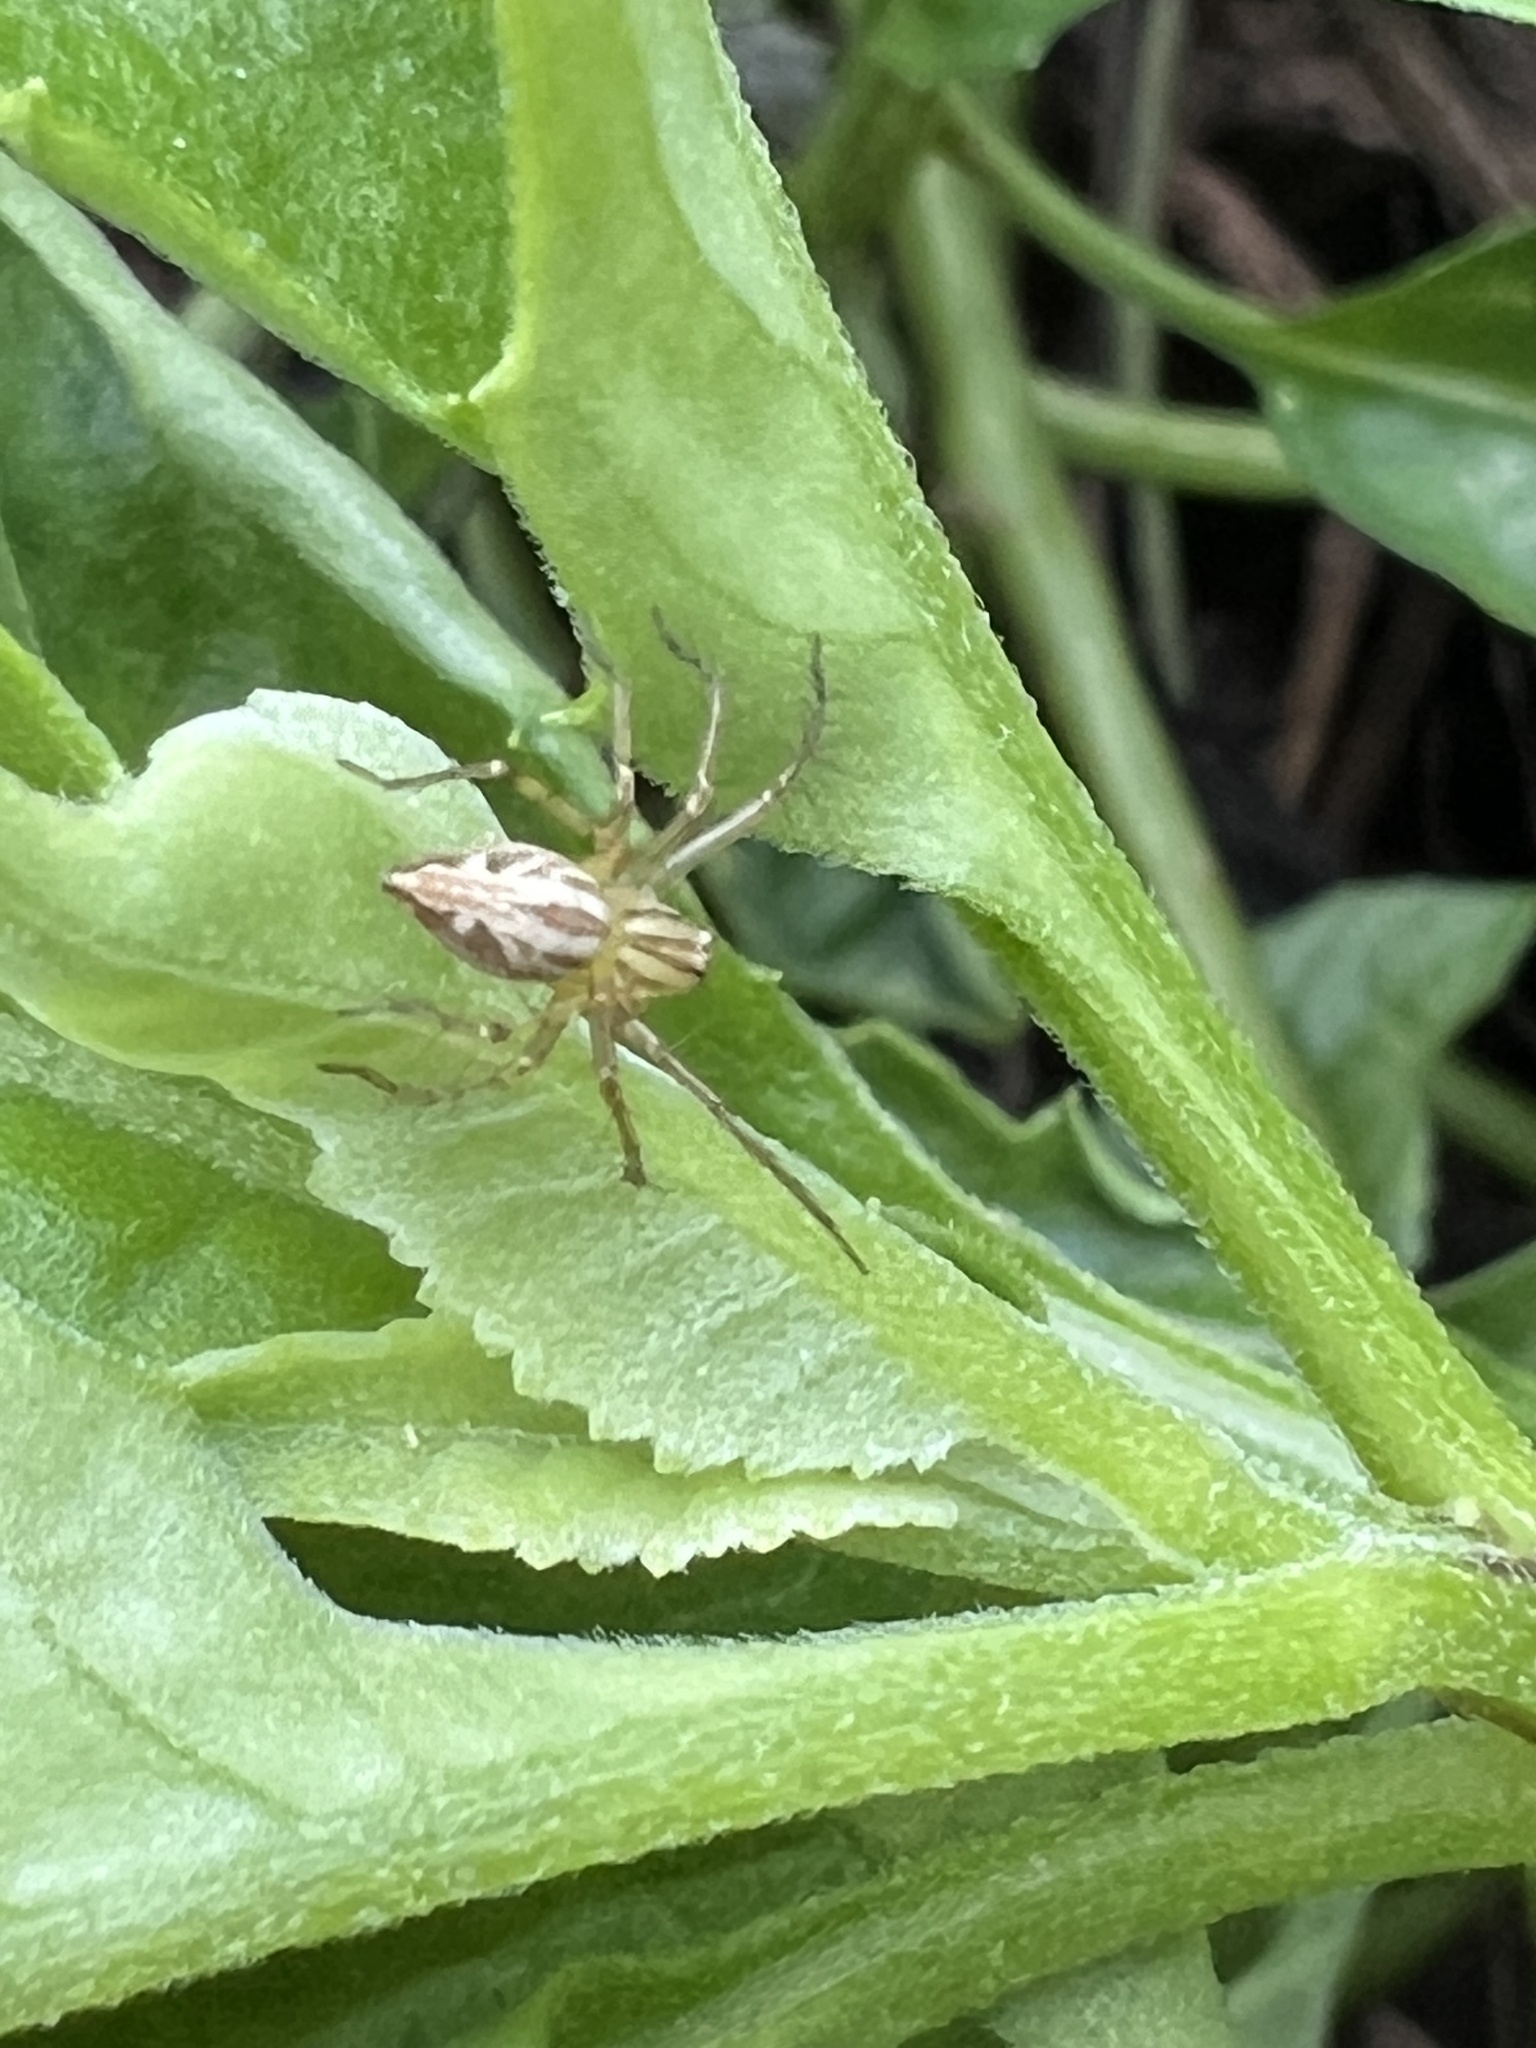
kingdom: Animalia
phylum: Arthropoda
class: Arachnida
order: Araneae
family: Oxyopidae
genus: Oxyopes
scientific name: Oxyopes gracilipes
